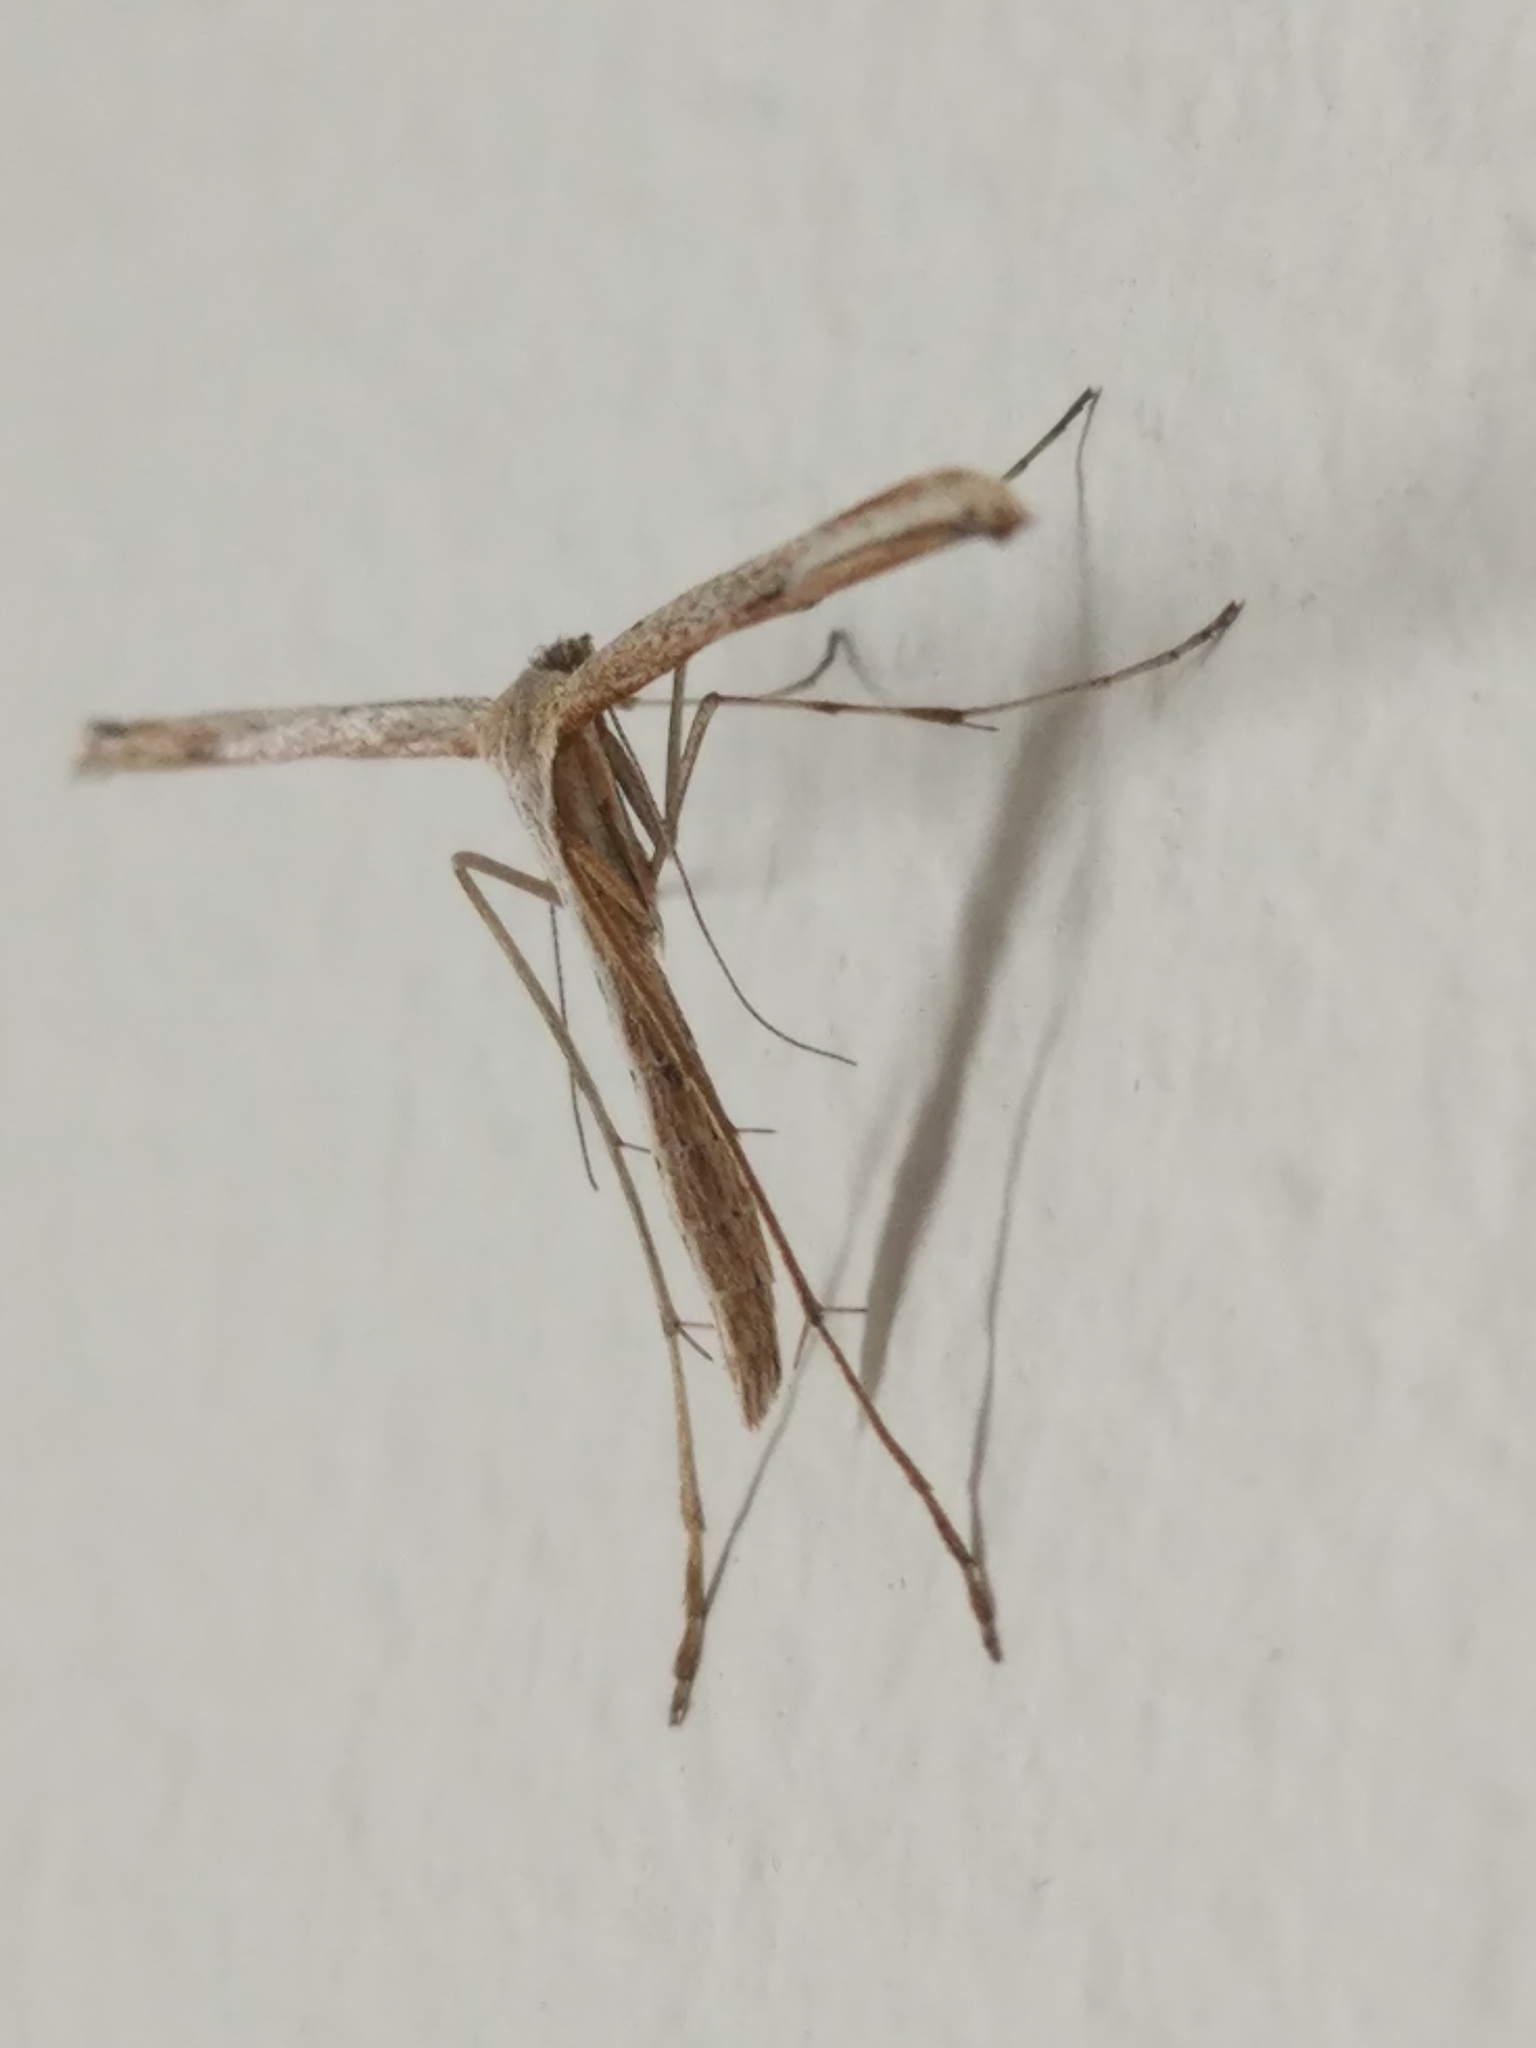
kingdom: Animalia
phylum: Arthropoda
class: Insecta
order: Lepidoptera
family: Pterophoridae
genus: Emmelina
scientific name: Emmelina monodactyla
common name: Common plume
